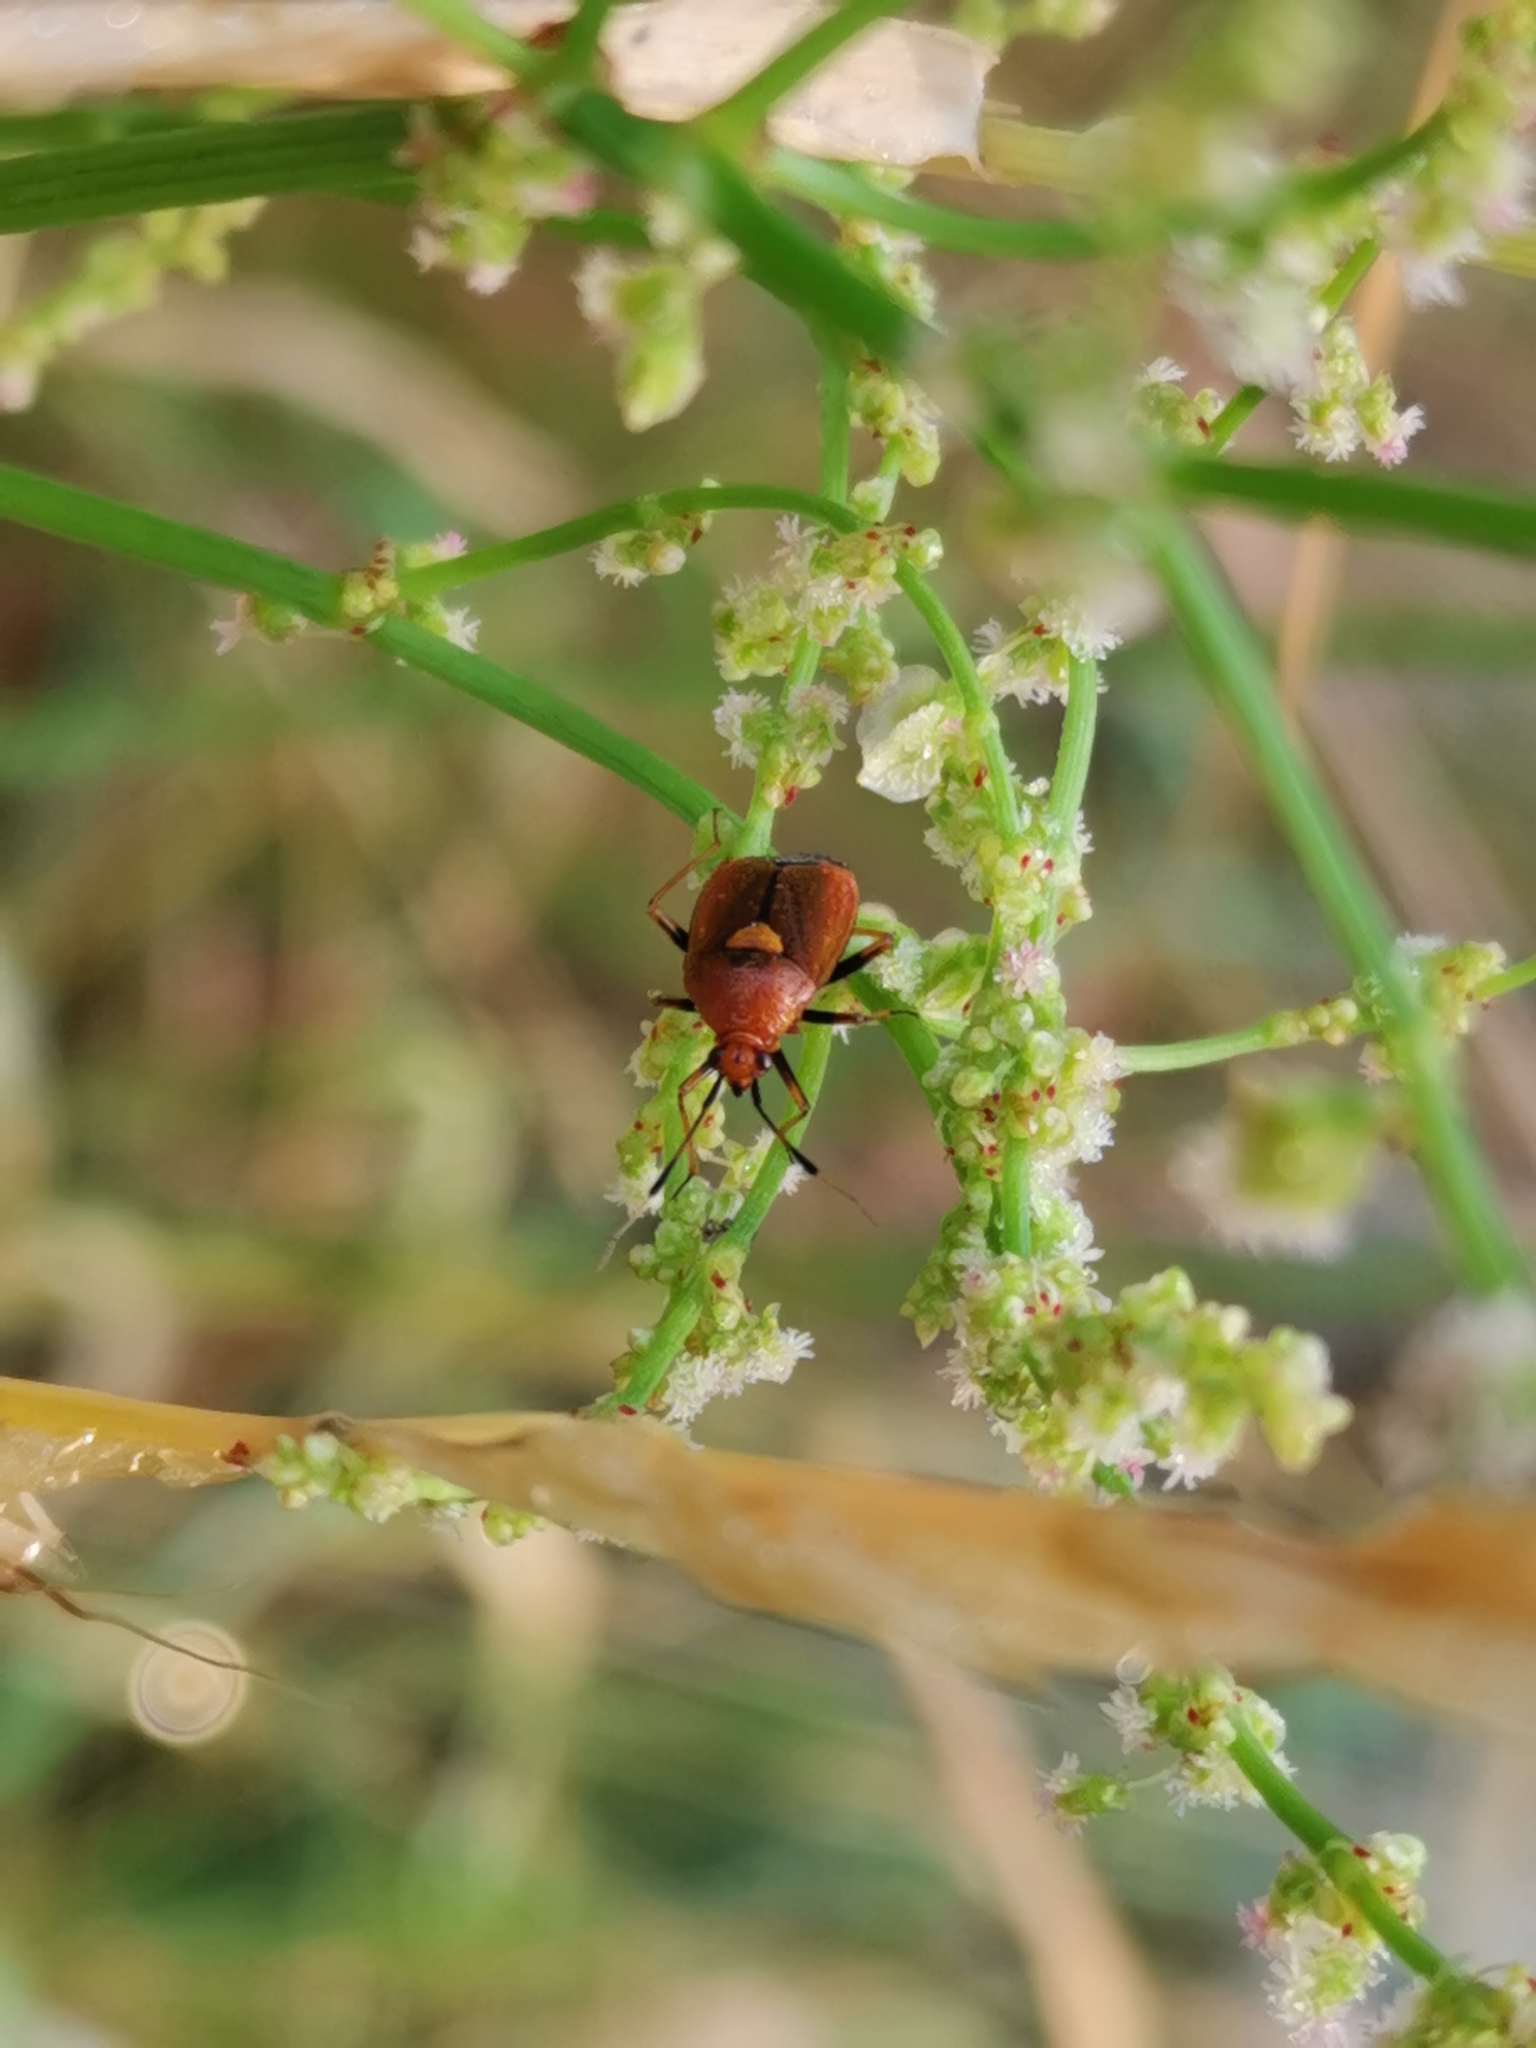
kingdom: Animalia
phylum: Arthropoda
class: Insecta
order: Hemiptera
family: Miridae
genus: Deraeocoris
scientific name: Deraeocoris ruber
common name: Plant bug
